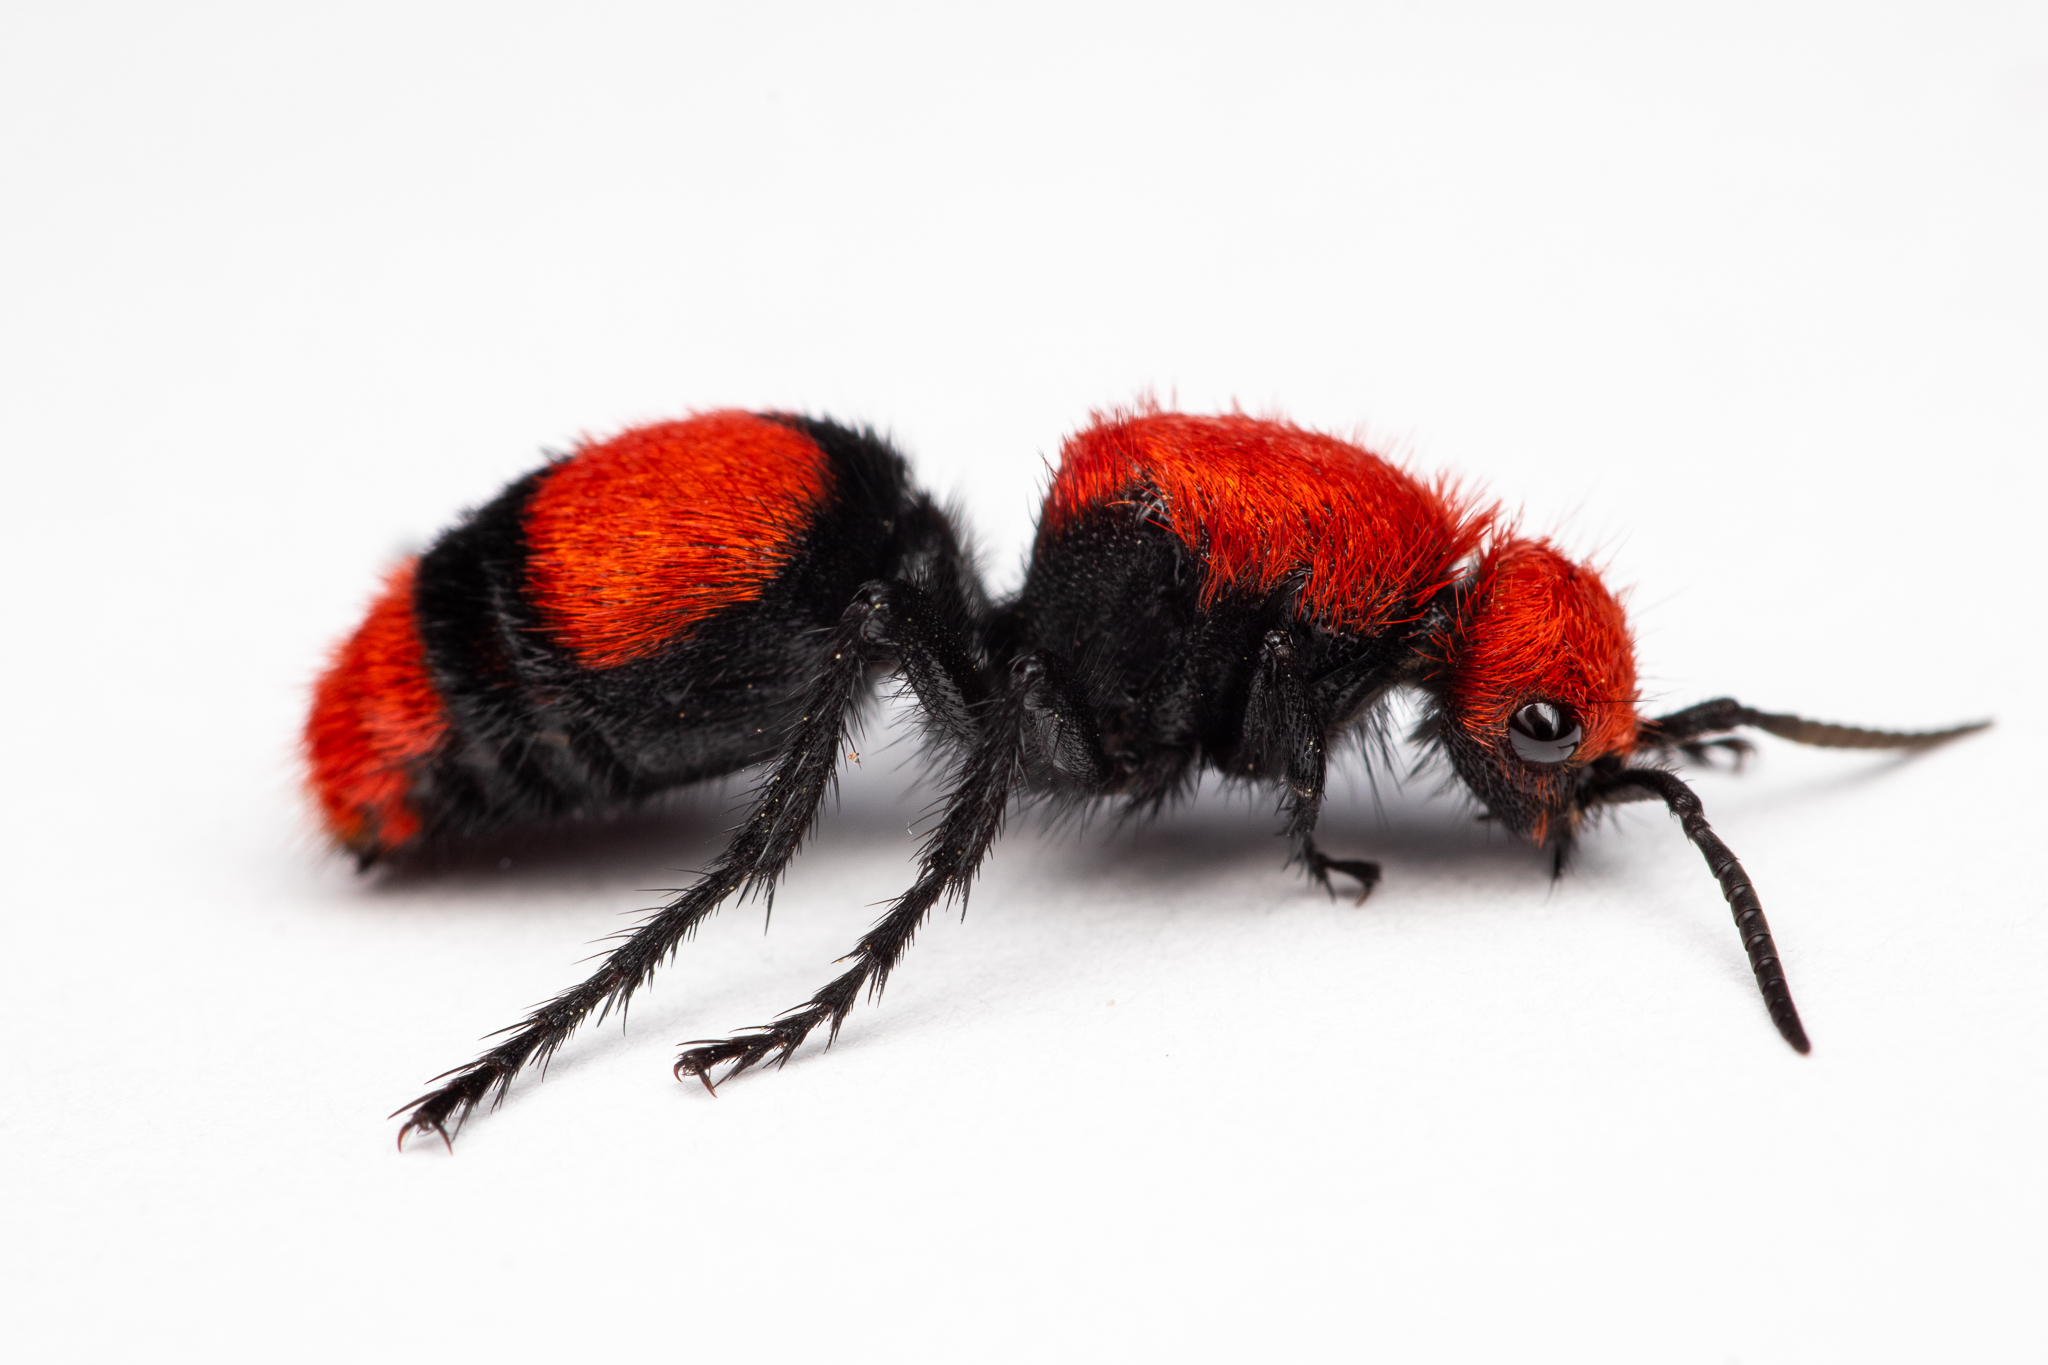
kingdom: Animalia
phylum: Arthropoda
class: Insecta
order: Hymenoptera
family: Mutillidae
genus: Dasymutilla
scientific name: Dasymutilla occidentalis
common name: Common eastern velvet ant
